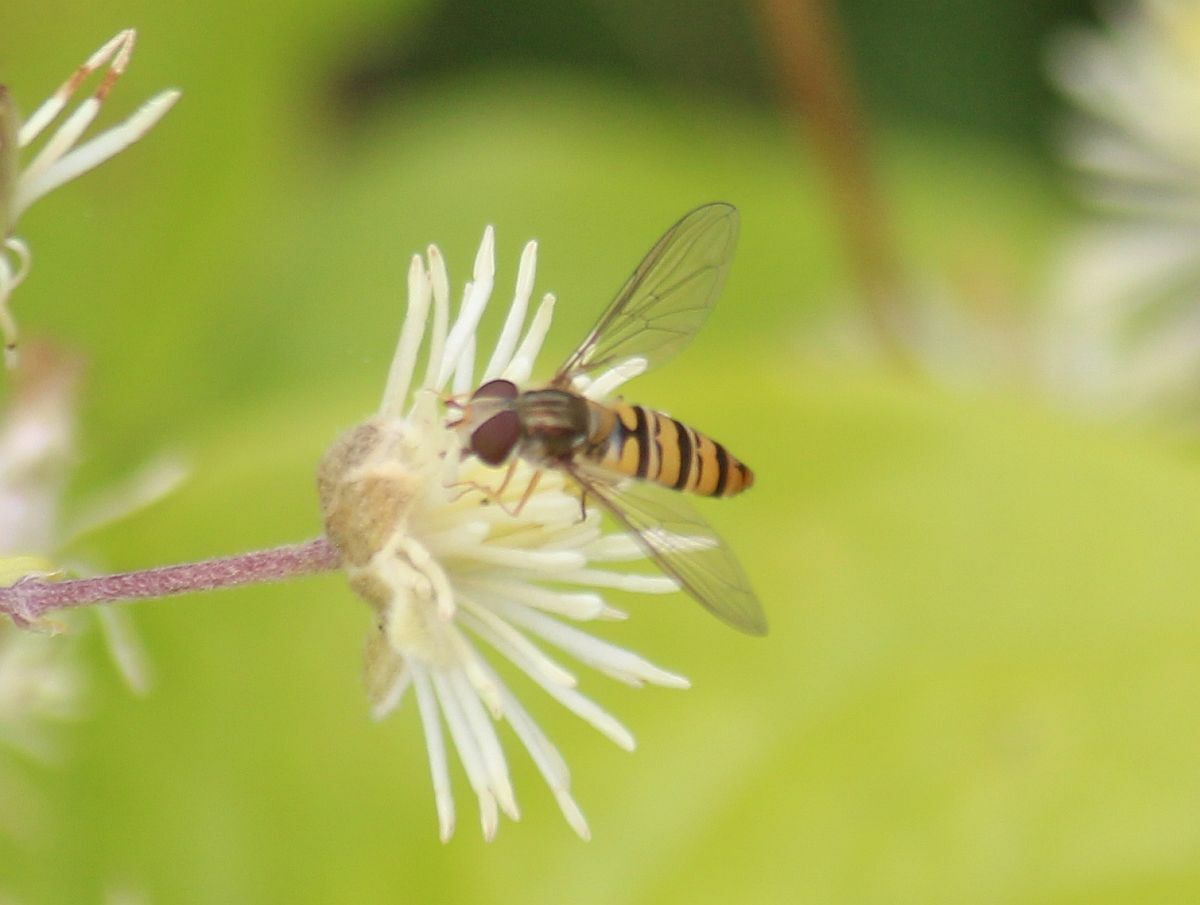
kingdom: Animalia
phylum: Arthropoda
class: Insecta
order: Diptera
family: Syrphidae
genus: Episyrphus
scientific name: Episyrphus balteatus
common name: Marmalade hoverfly
